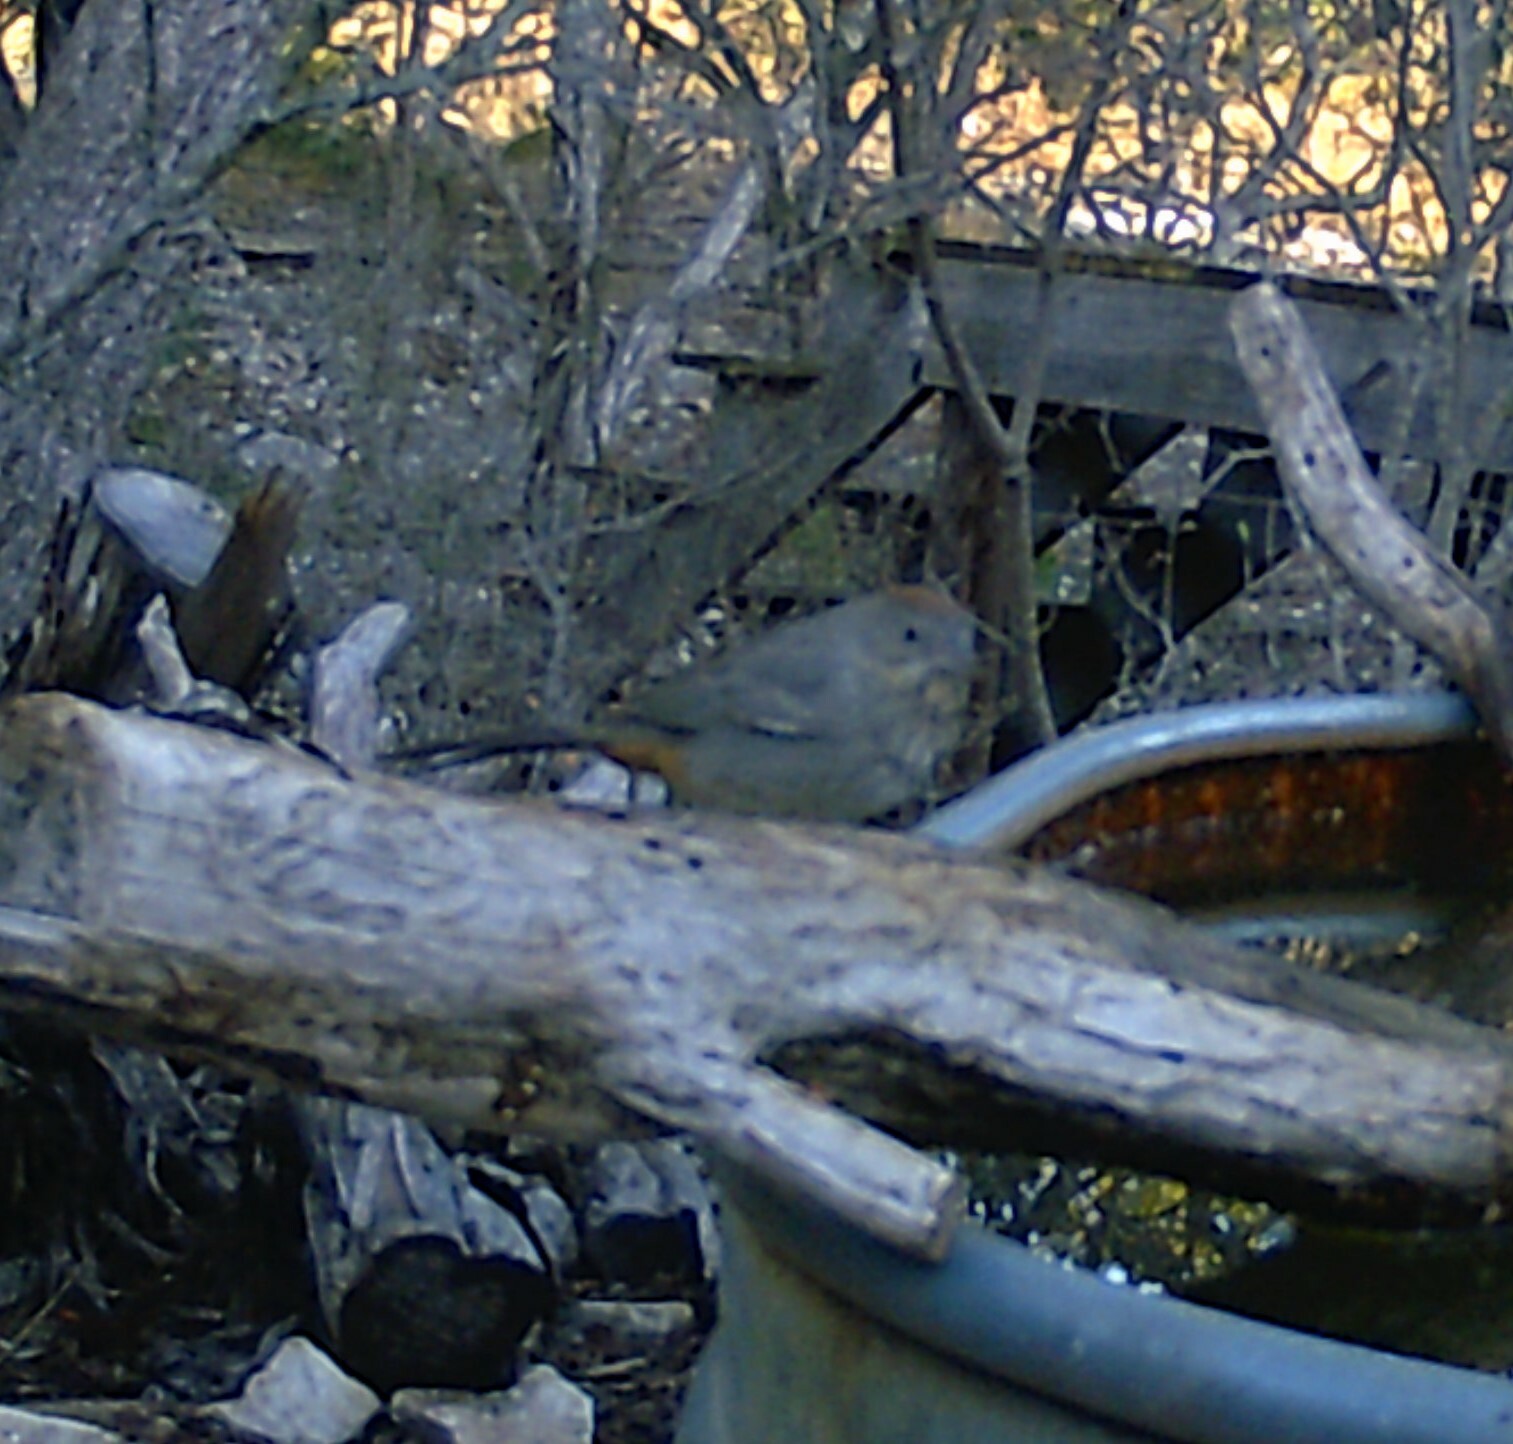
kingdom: Animalia
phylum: Chordata
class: Aves
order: Passeriformes
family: Passerellidae
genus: Melozone
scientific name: Melozone fusca
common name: Canyon towhee
